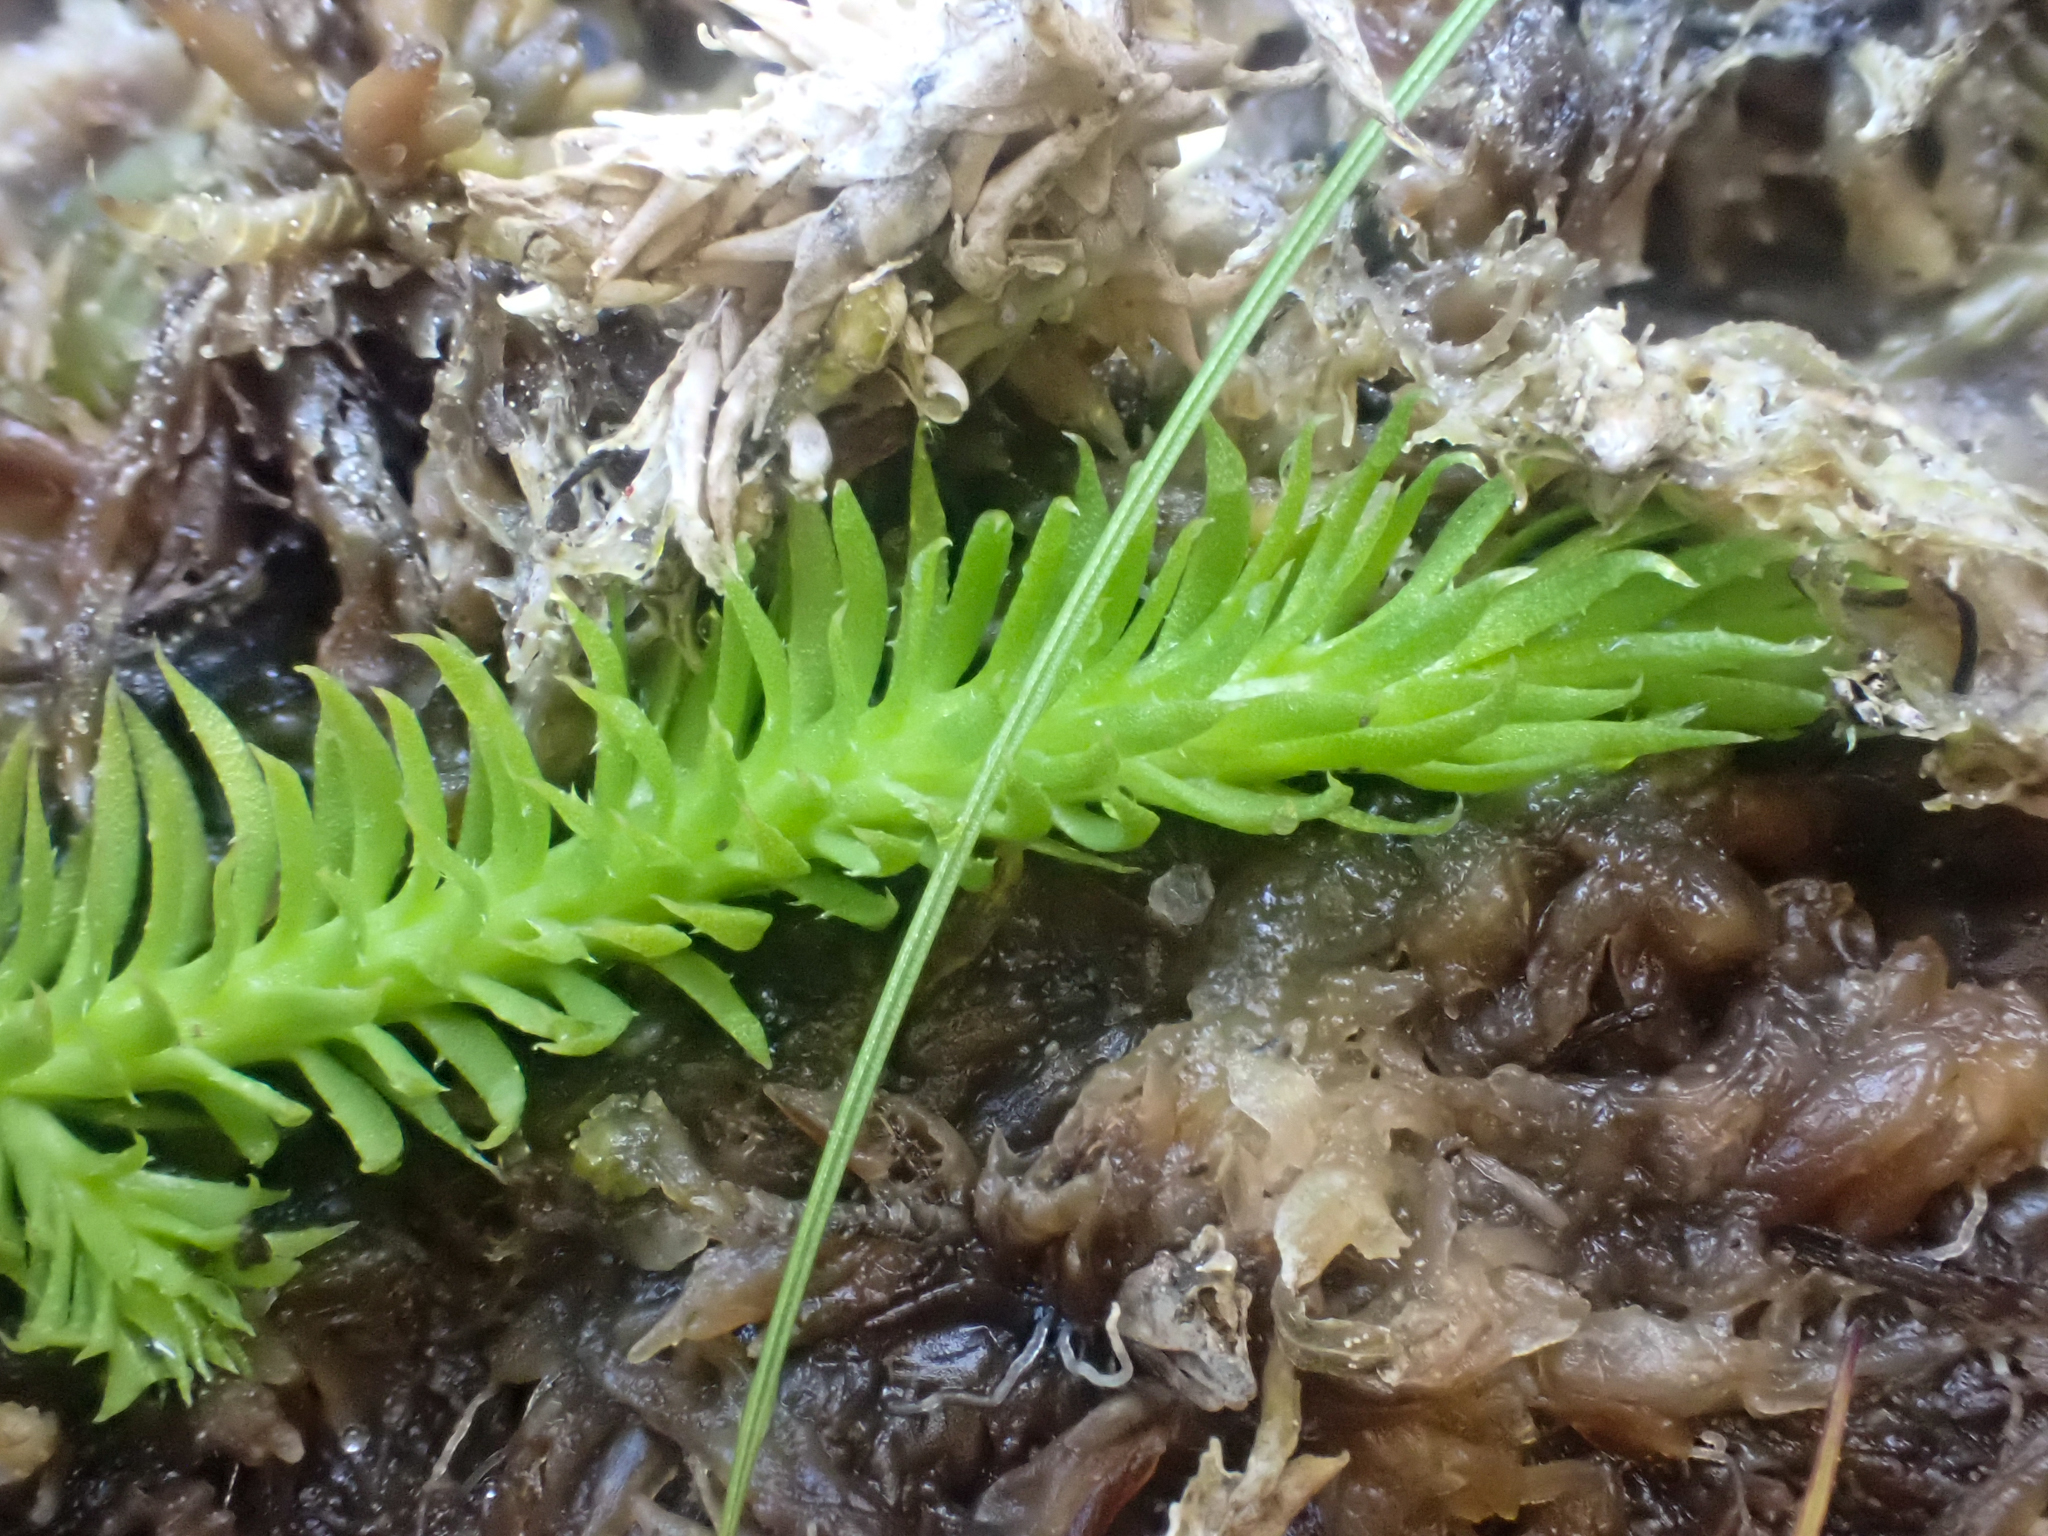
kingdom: Plantae
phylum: Tracheophyta
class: Lycopodiopsida
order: Lycopodiales
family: Lycopodiaceae
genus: Lycopodiella
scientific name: Lycopodiella inundata
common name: Marsh clubmoss
